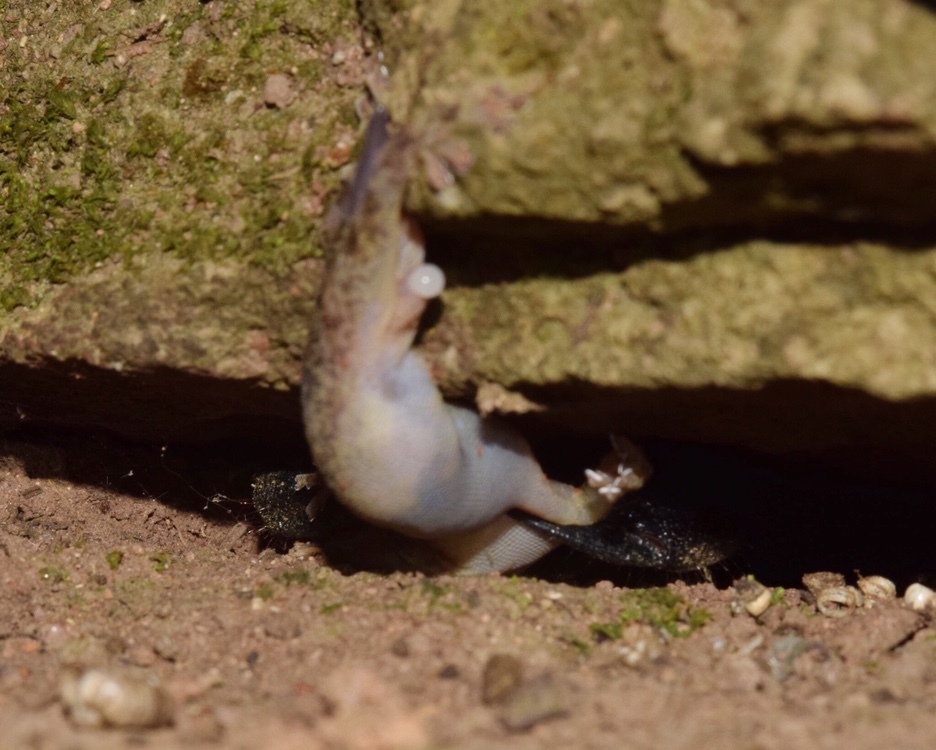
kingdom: Animalia
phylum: Chordata
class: Squamata
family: Gekkonidae
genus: Afroedura
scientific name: Afroedura pondolia
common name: Pondo flat gecko
